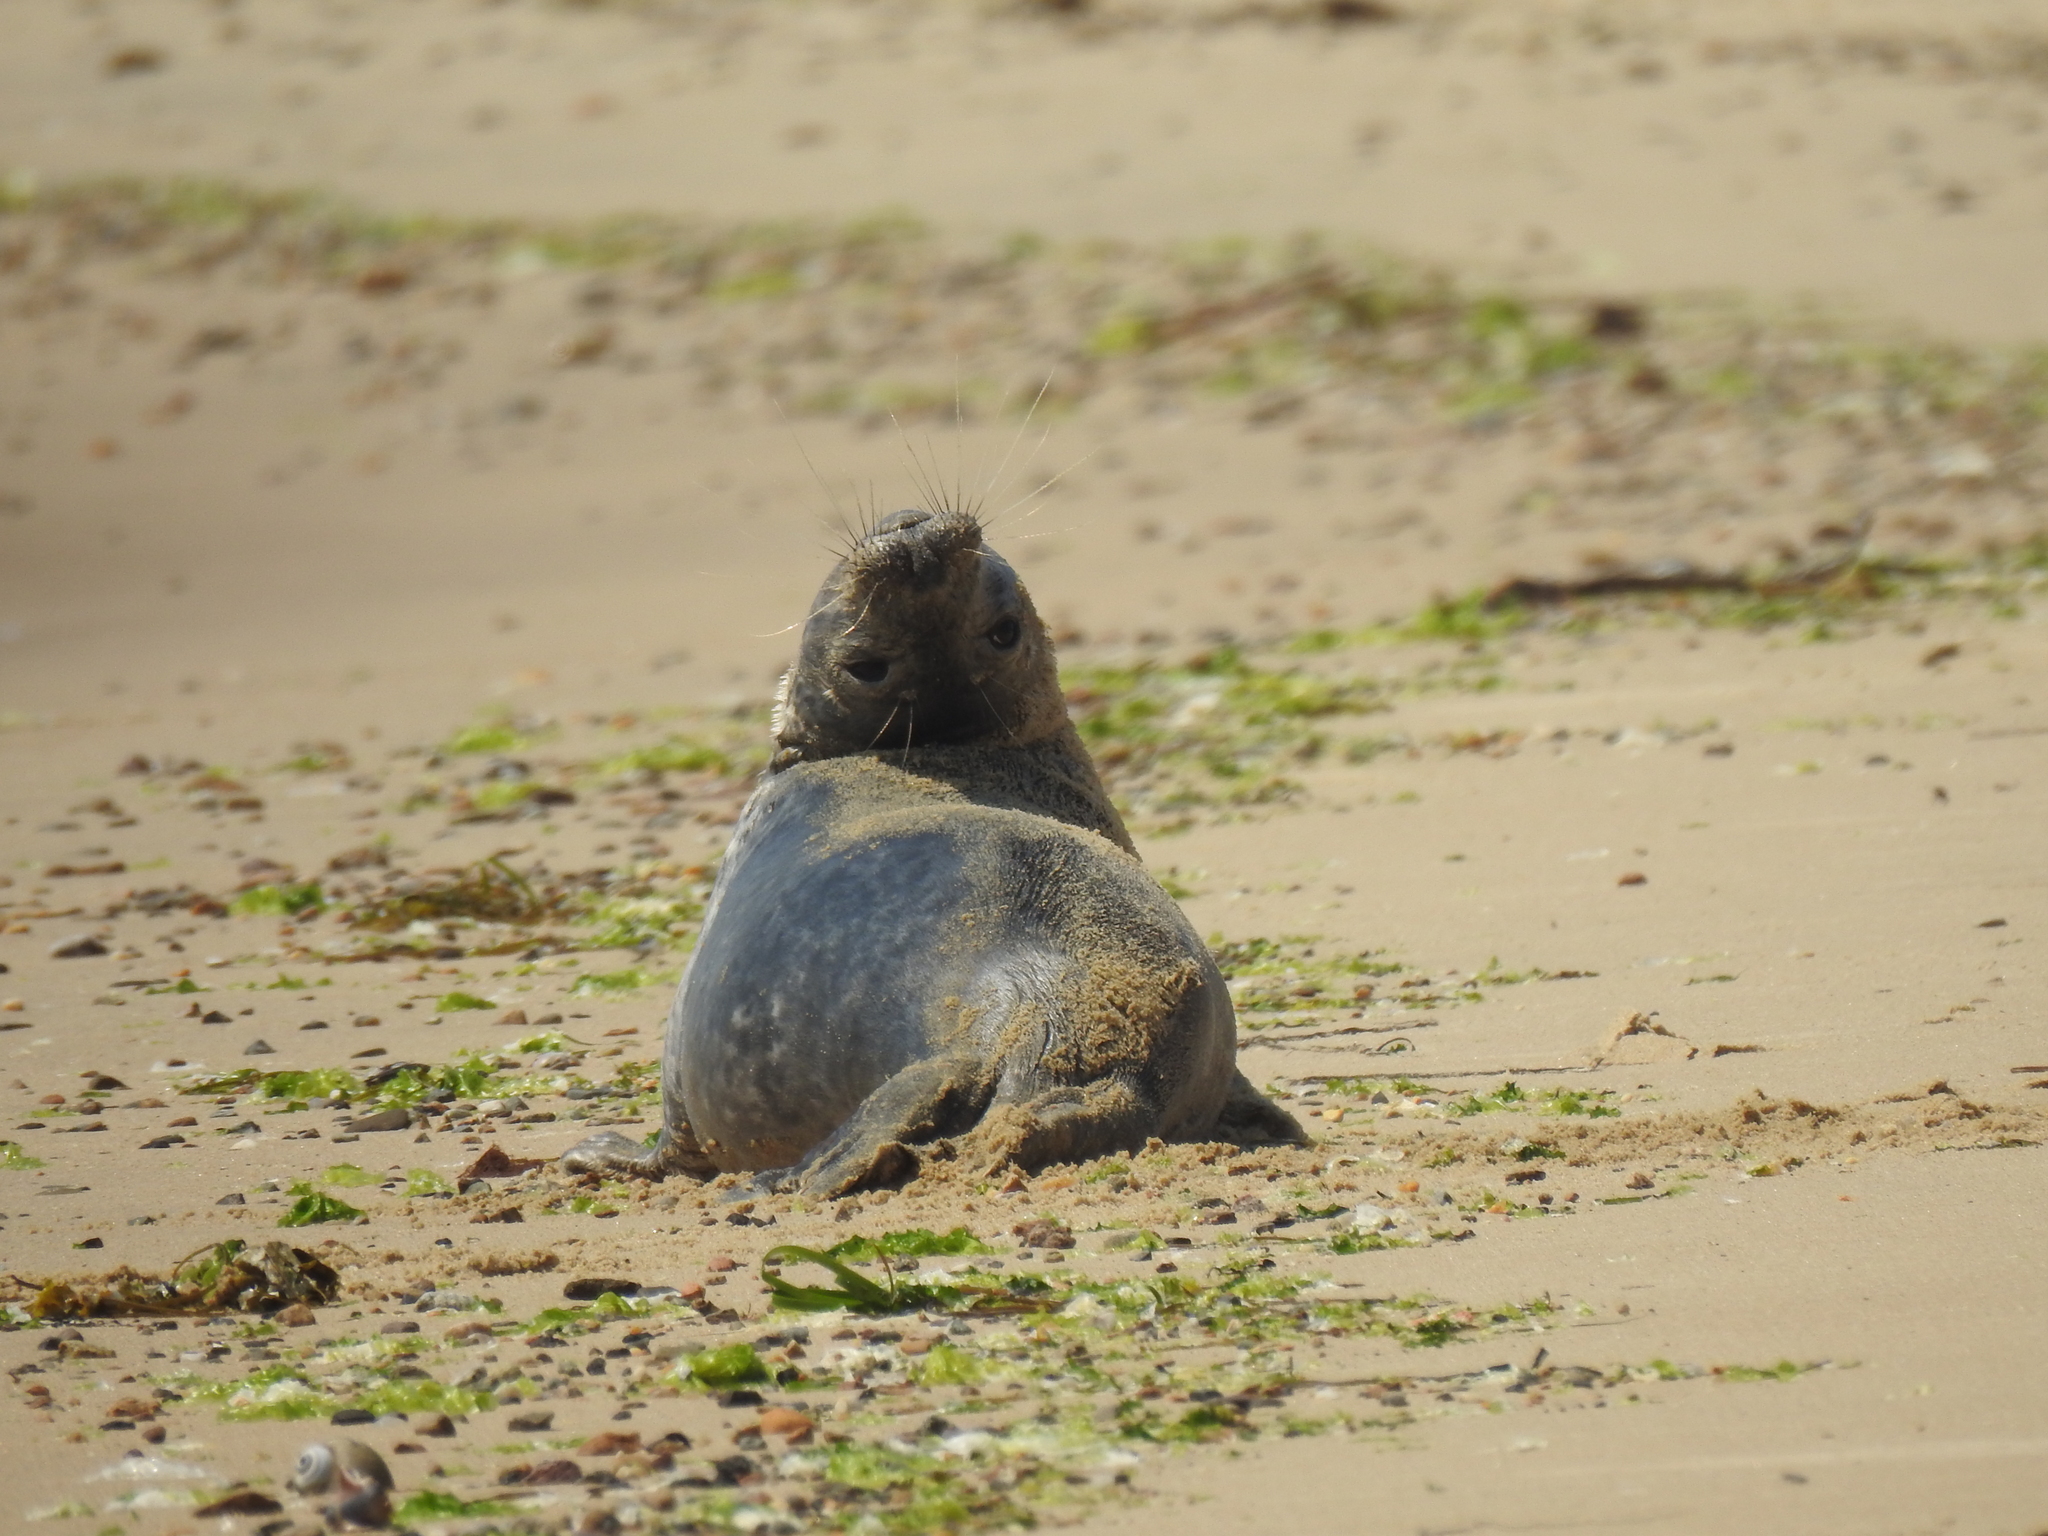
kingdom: Animalia
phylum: Chordata
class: Mammalia
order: Carnivora
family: Phocidae
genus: Halichoerus
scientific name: Halichoerus grypus
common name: Grey seal
